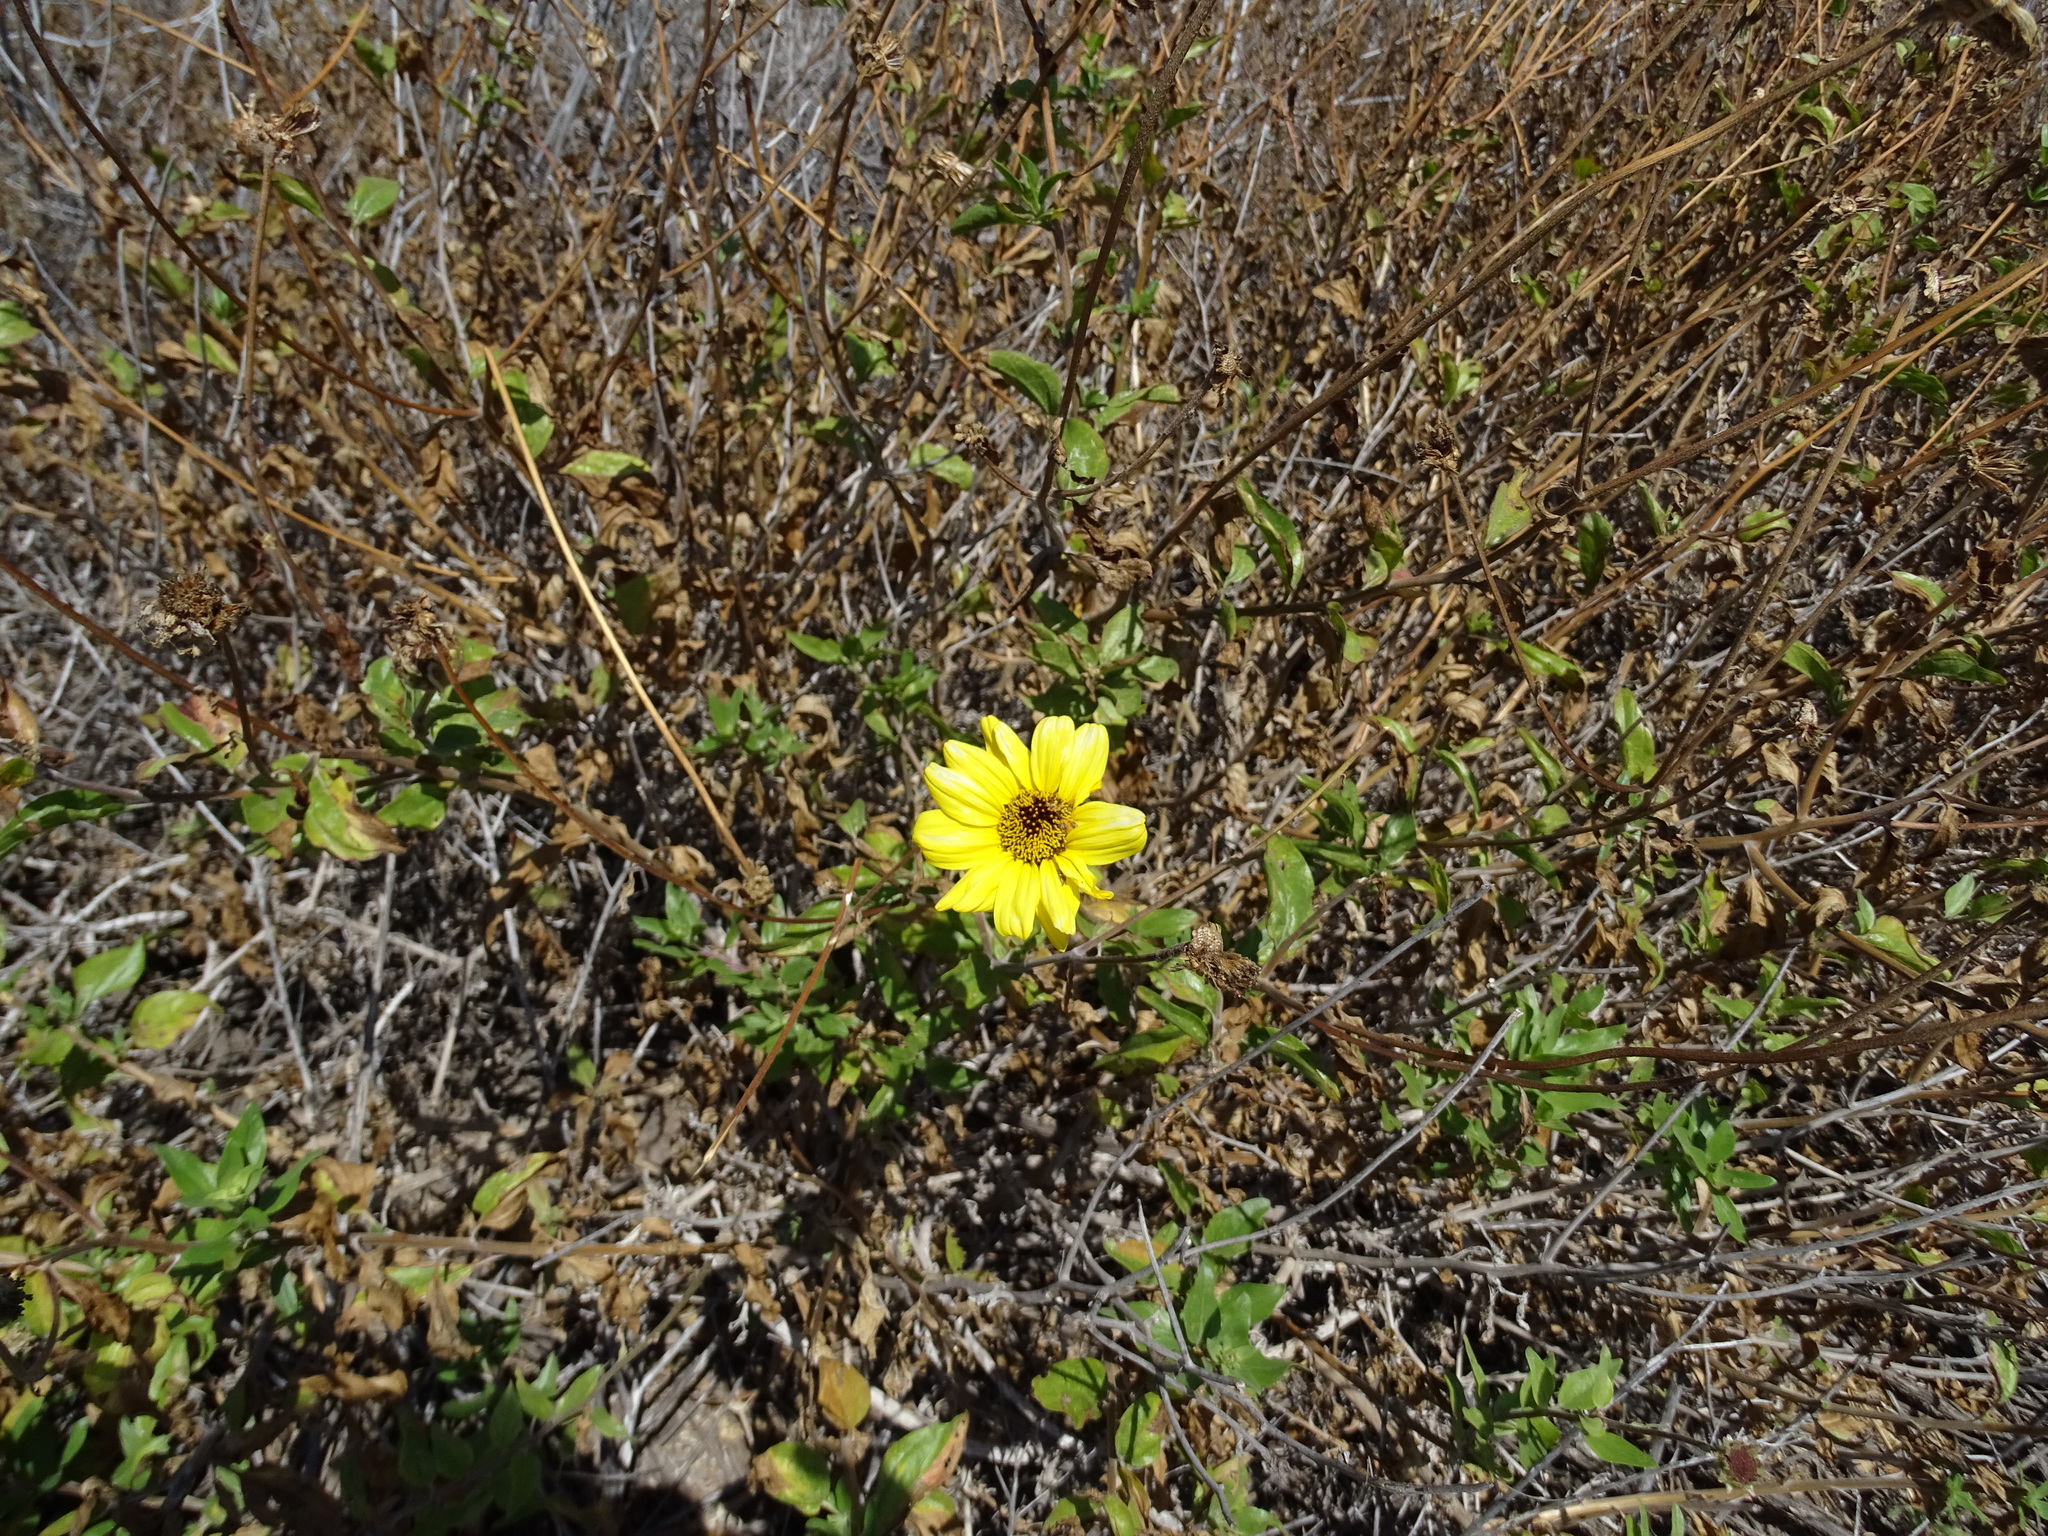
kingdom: Plantae
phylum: Tracheophyta
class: Magnoliopsida
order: Asterales
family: Asteraceae
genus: Encelia
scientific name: Encelia californica
